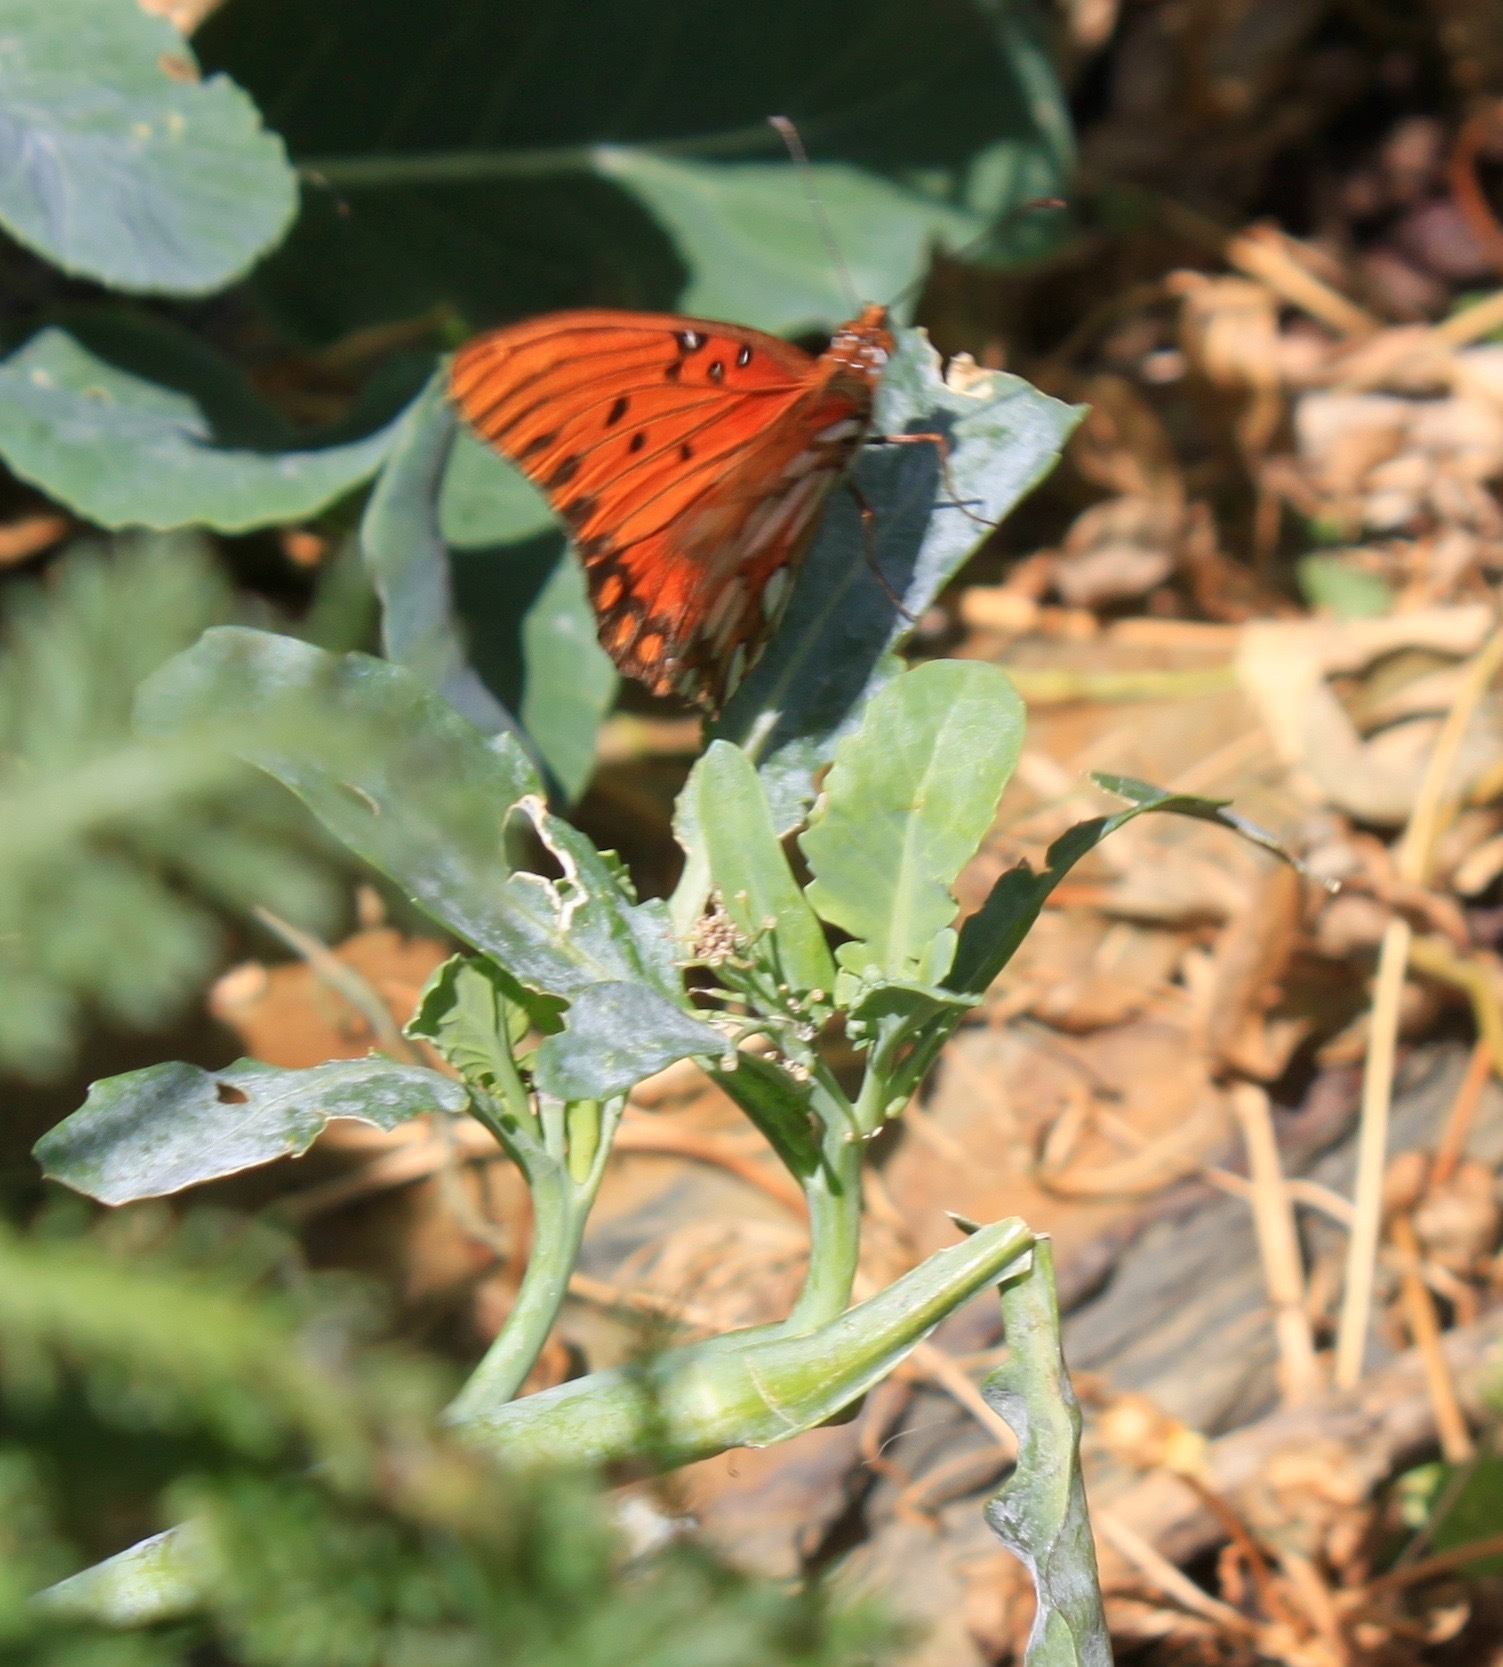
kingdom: Animalia
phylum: Arthropoda
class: Insecta
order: Lepidoptera
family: Nymphalidae
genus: Dione
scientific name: Dione vanillae
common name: Gulf fritillary
